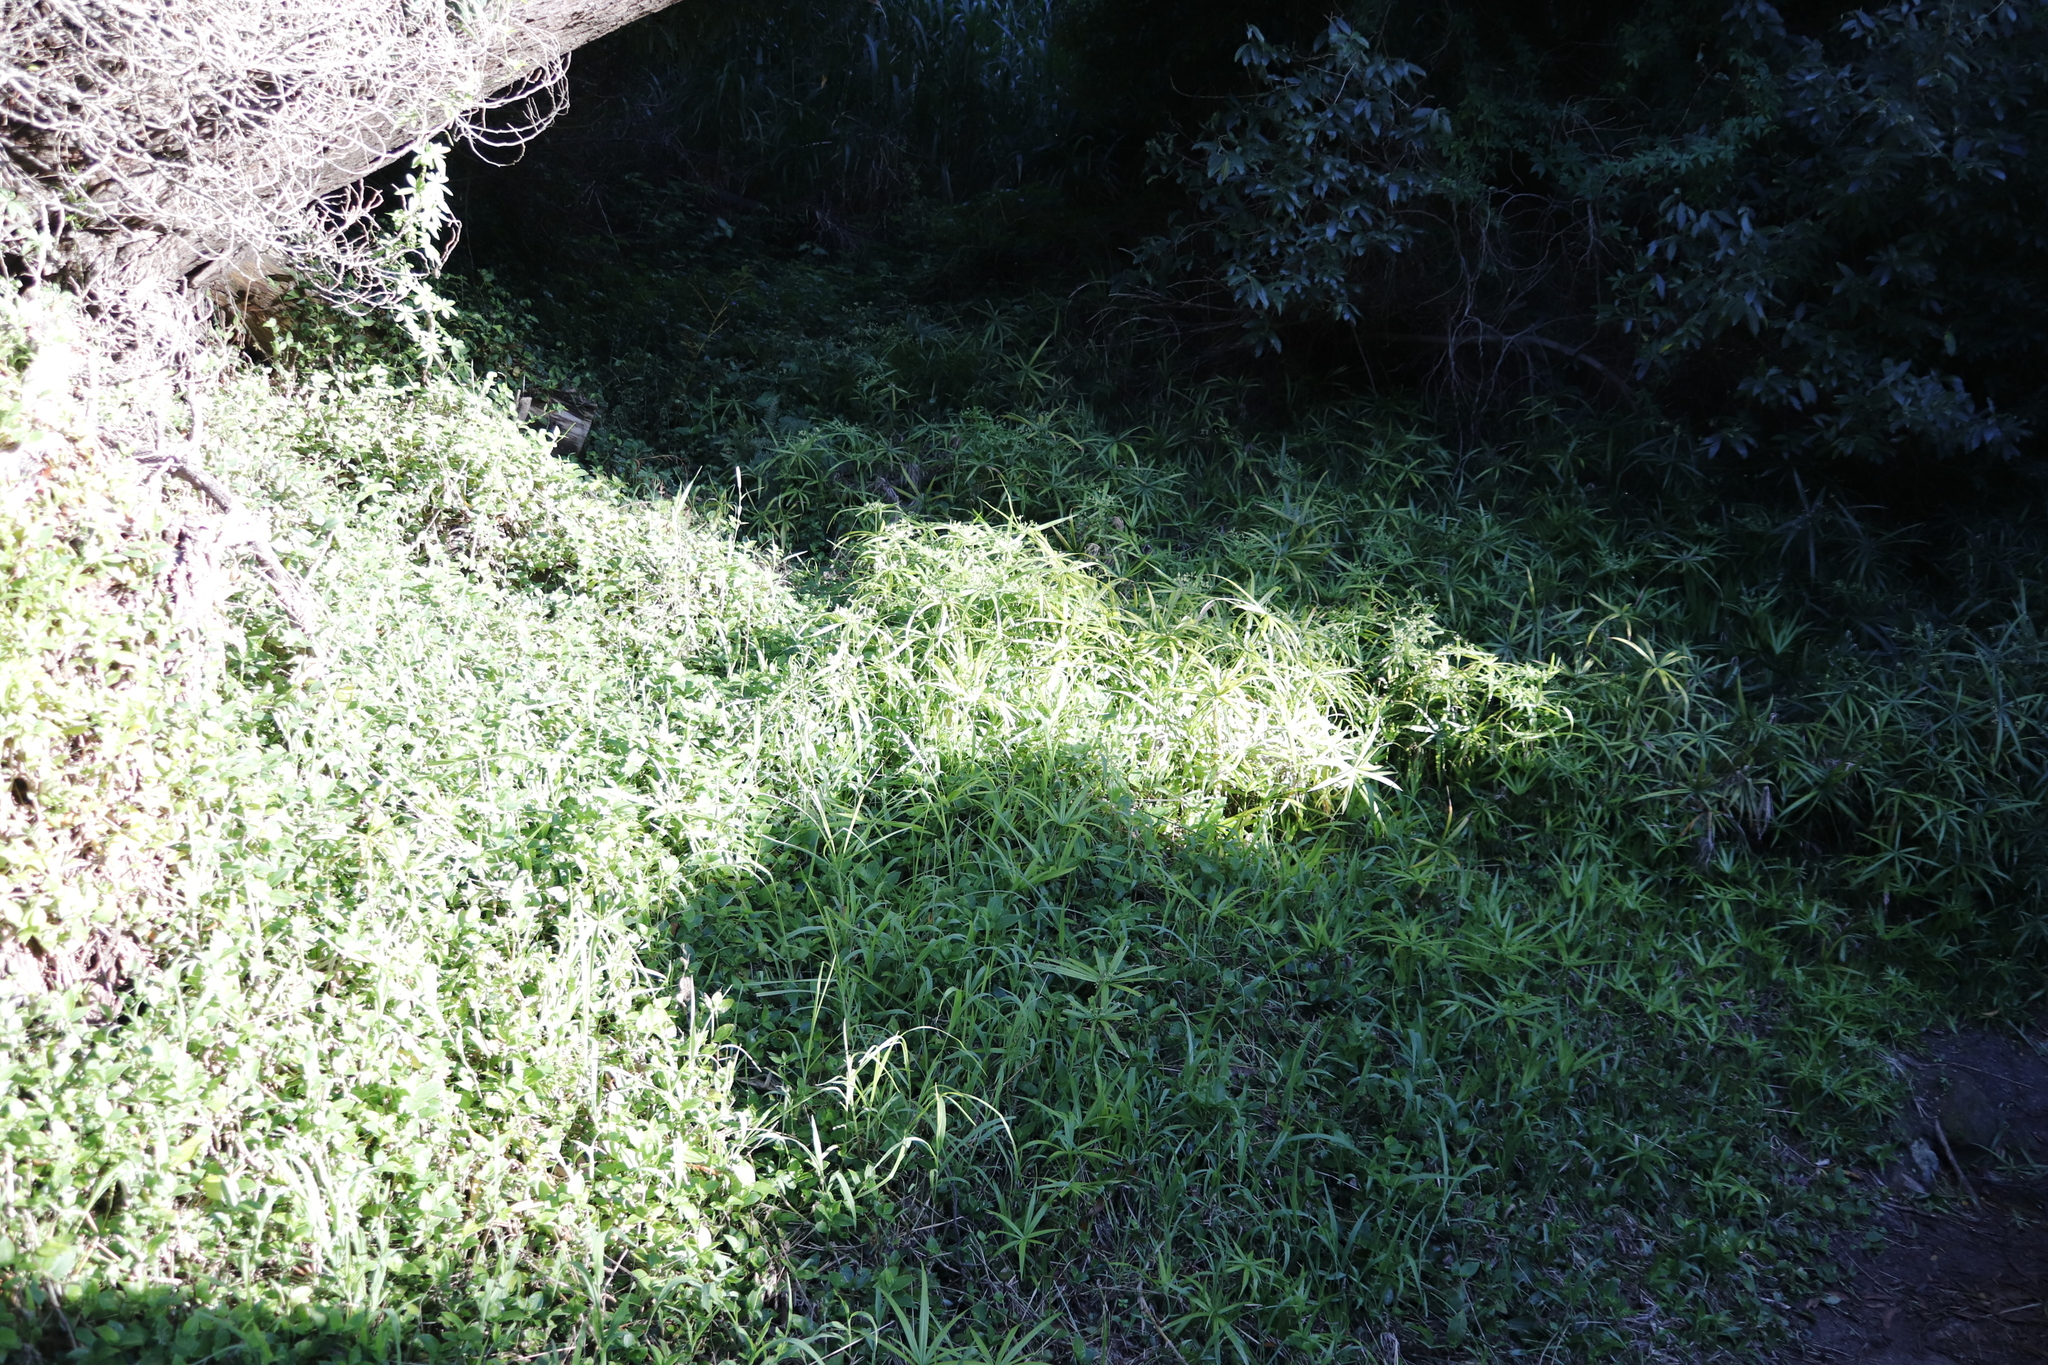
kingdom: Plantae
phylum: Tracheophyta
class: Liliopsida
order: Poales
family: Cyperaceae
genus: Cyperus
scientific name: Cyperus albostriatus
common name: Dwarf umbrella-grass
